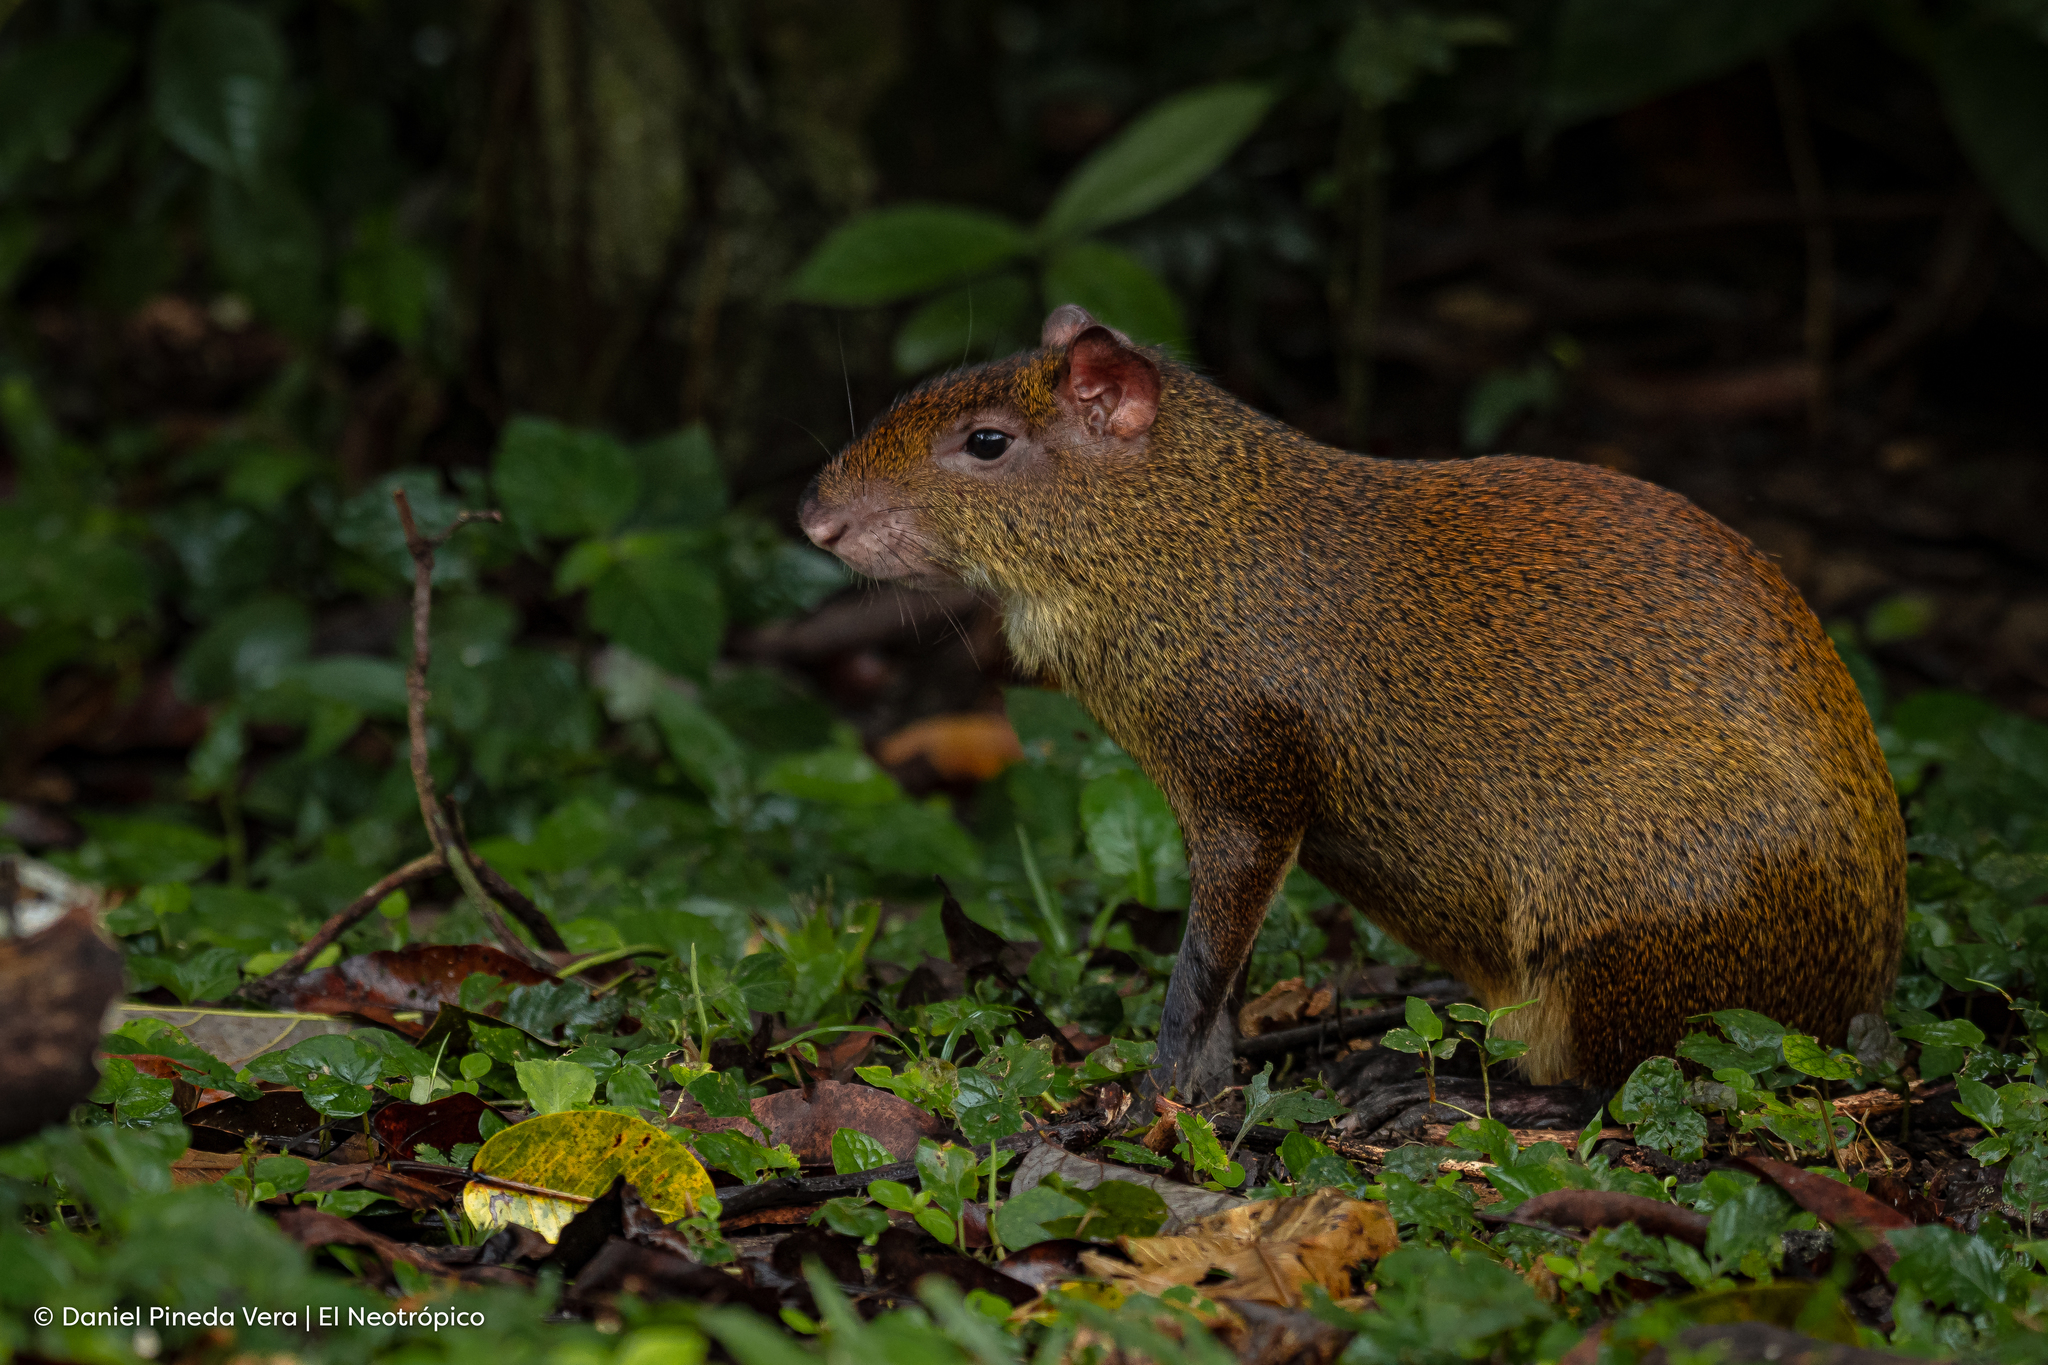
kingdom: Animalia
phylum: Chordata
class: Mammalia
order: Rodentia
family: Dasyproctidae
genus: Dasyprocta
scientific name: Dasyprocta punctata
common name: Central american agouti
